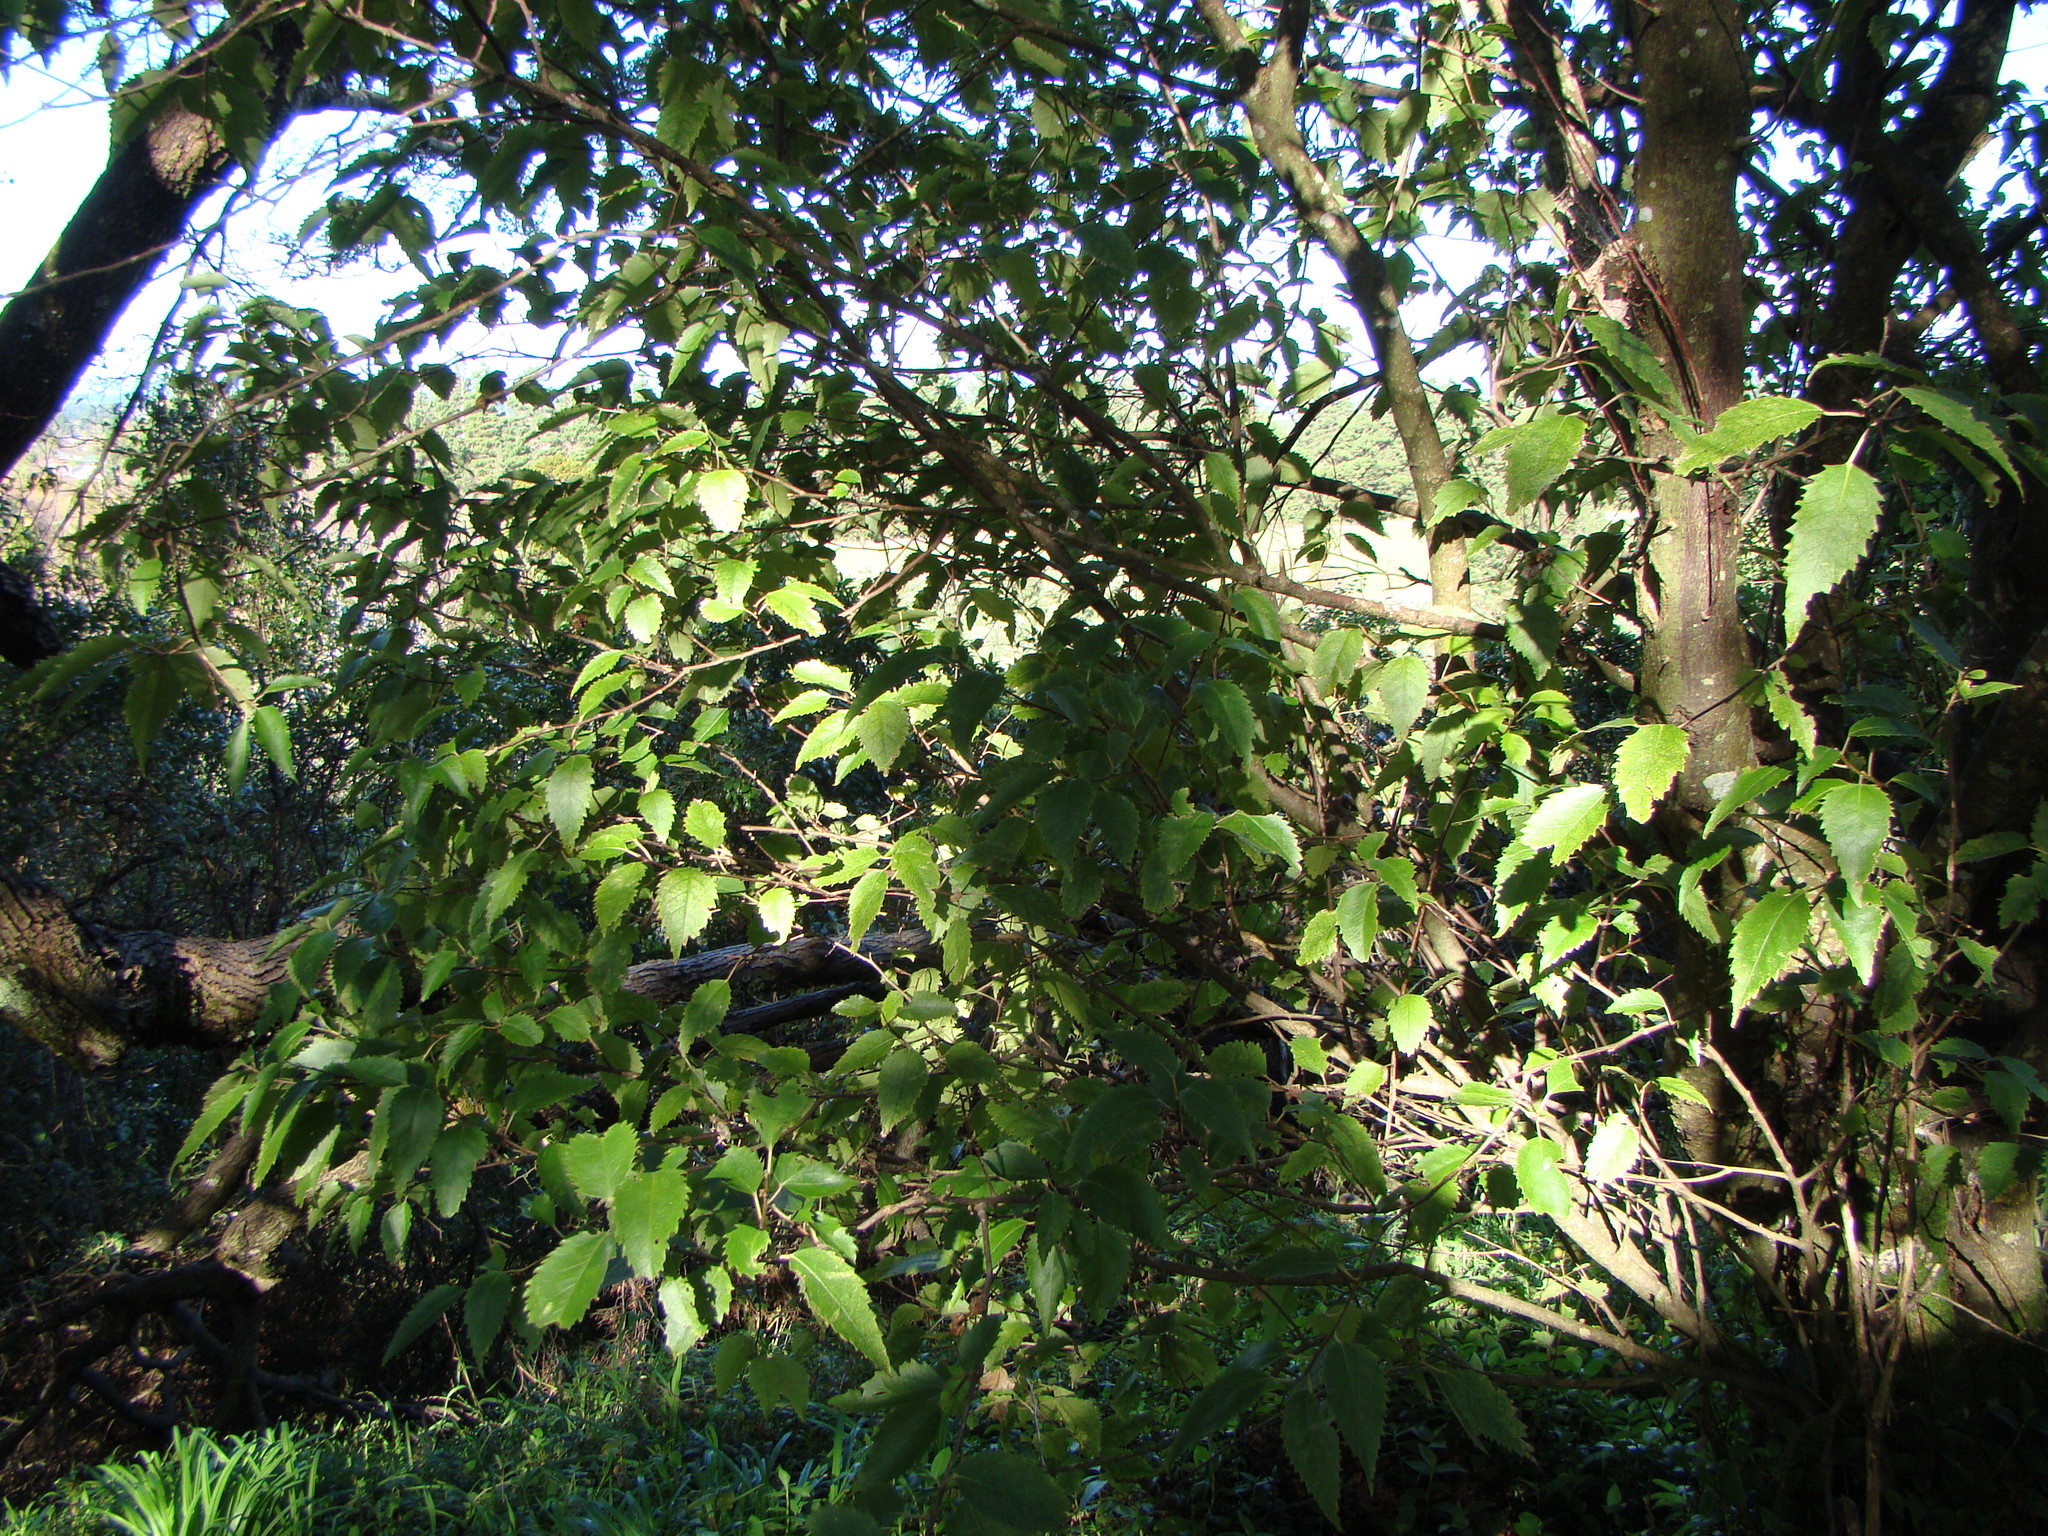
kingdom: Plantae
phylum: Tracheophyta
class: Magnoliopsida
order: Malvales
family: Malvaceae
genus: Hoheria
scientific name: Hoheria sexstylosa
